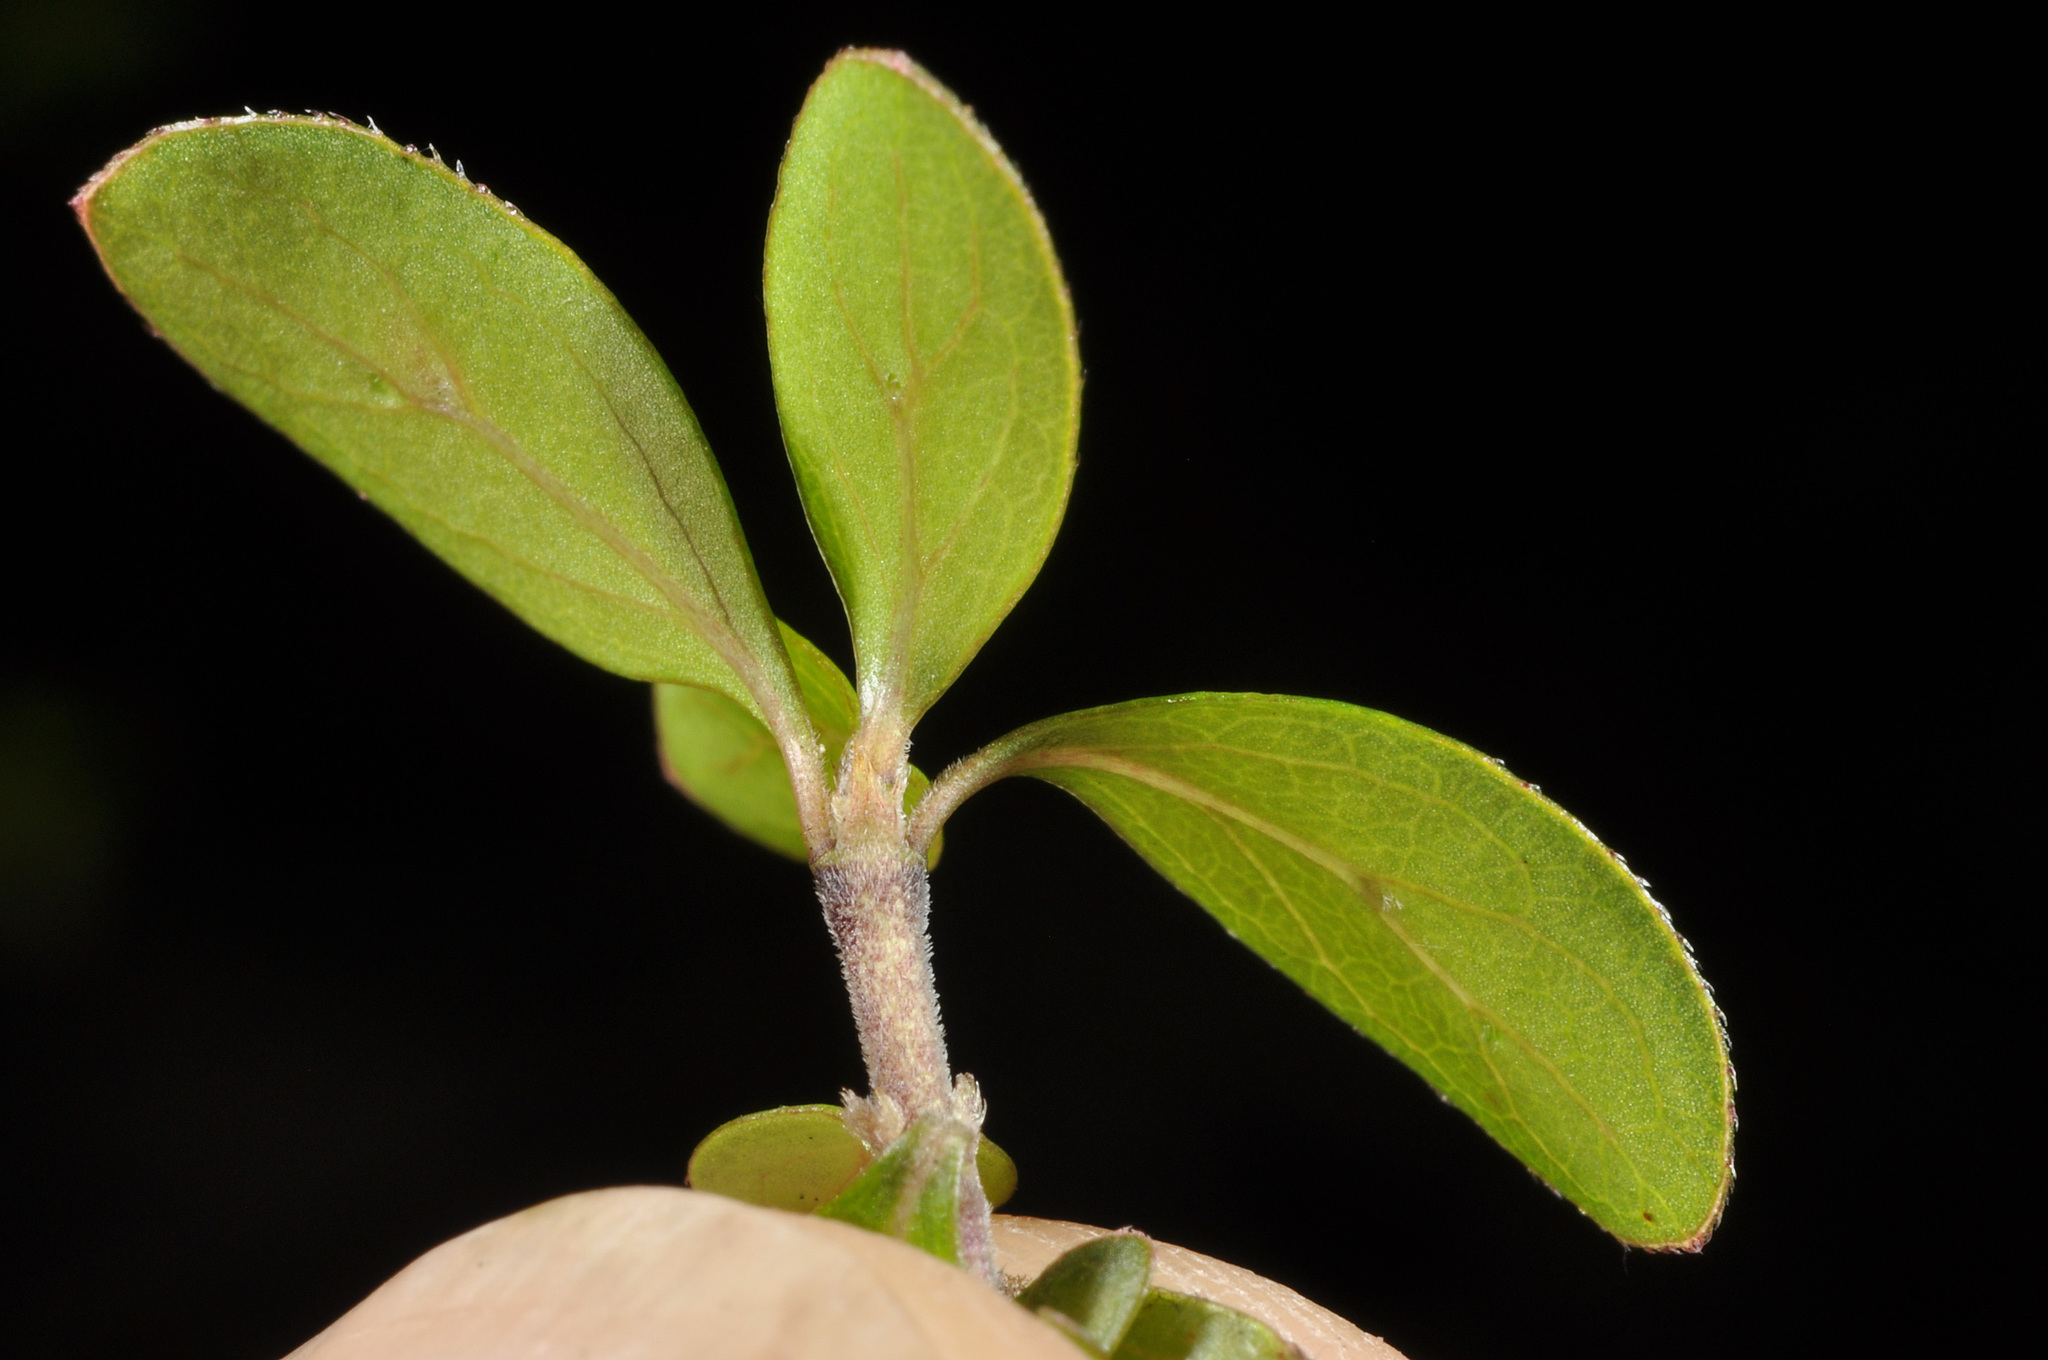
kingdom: Plantae
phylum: Tracheophyta
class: Magnoliopsida
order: Gentianales
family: Rubiaceae
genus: Coprosma
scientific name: Coprosma ciliata
